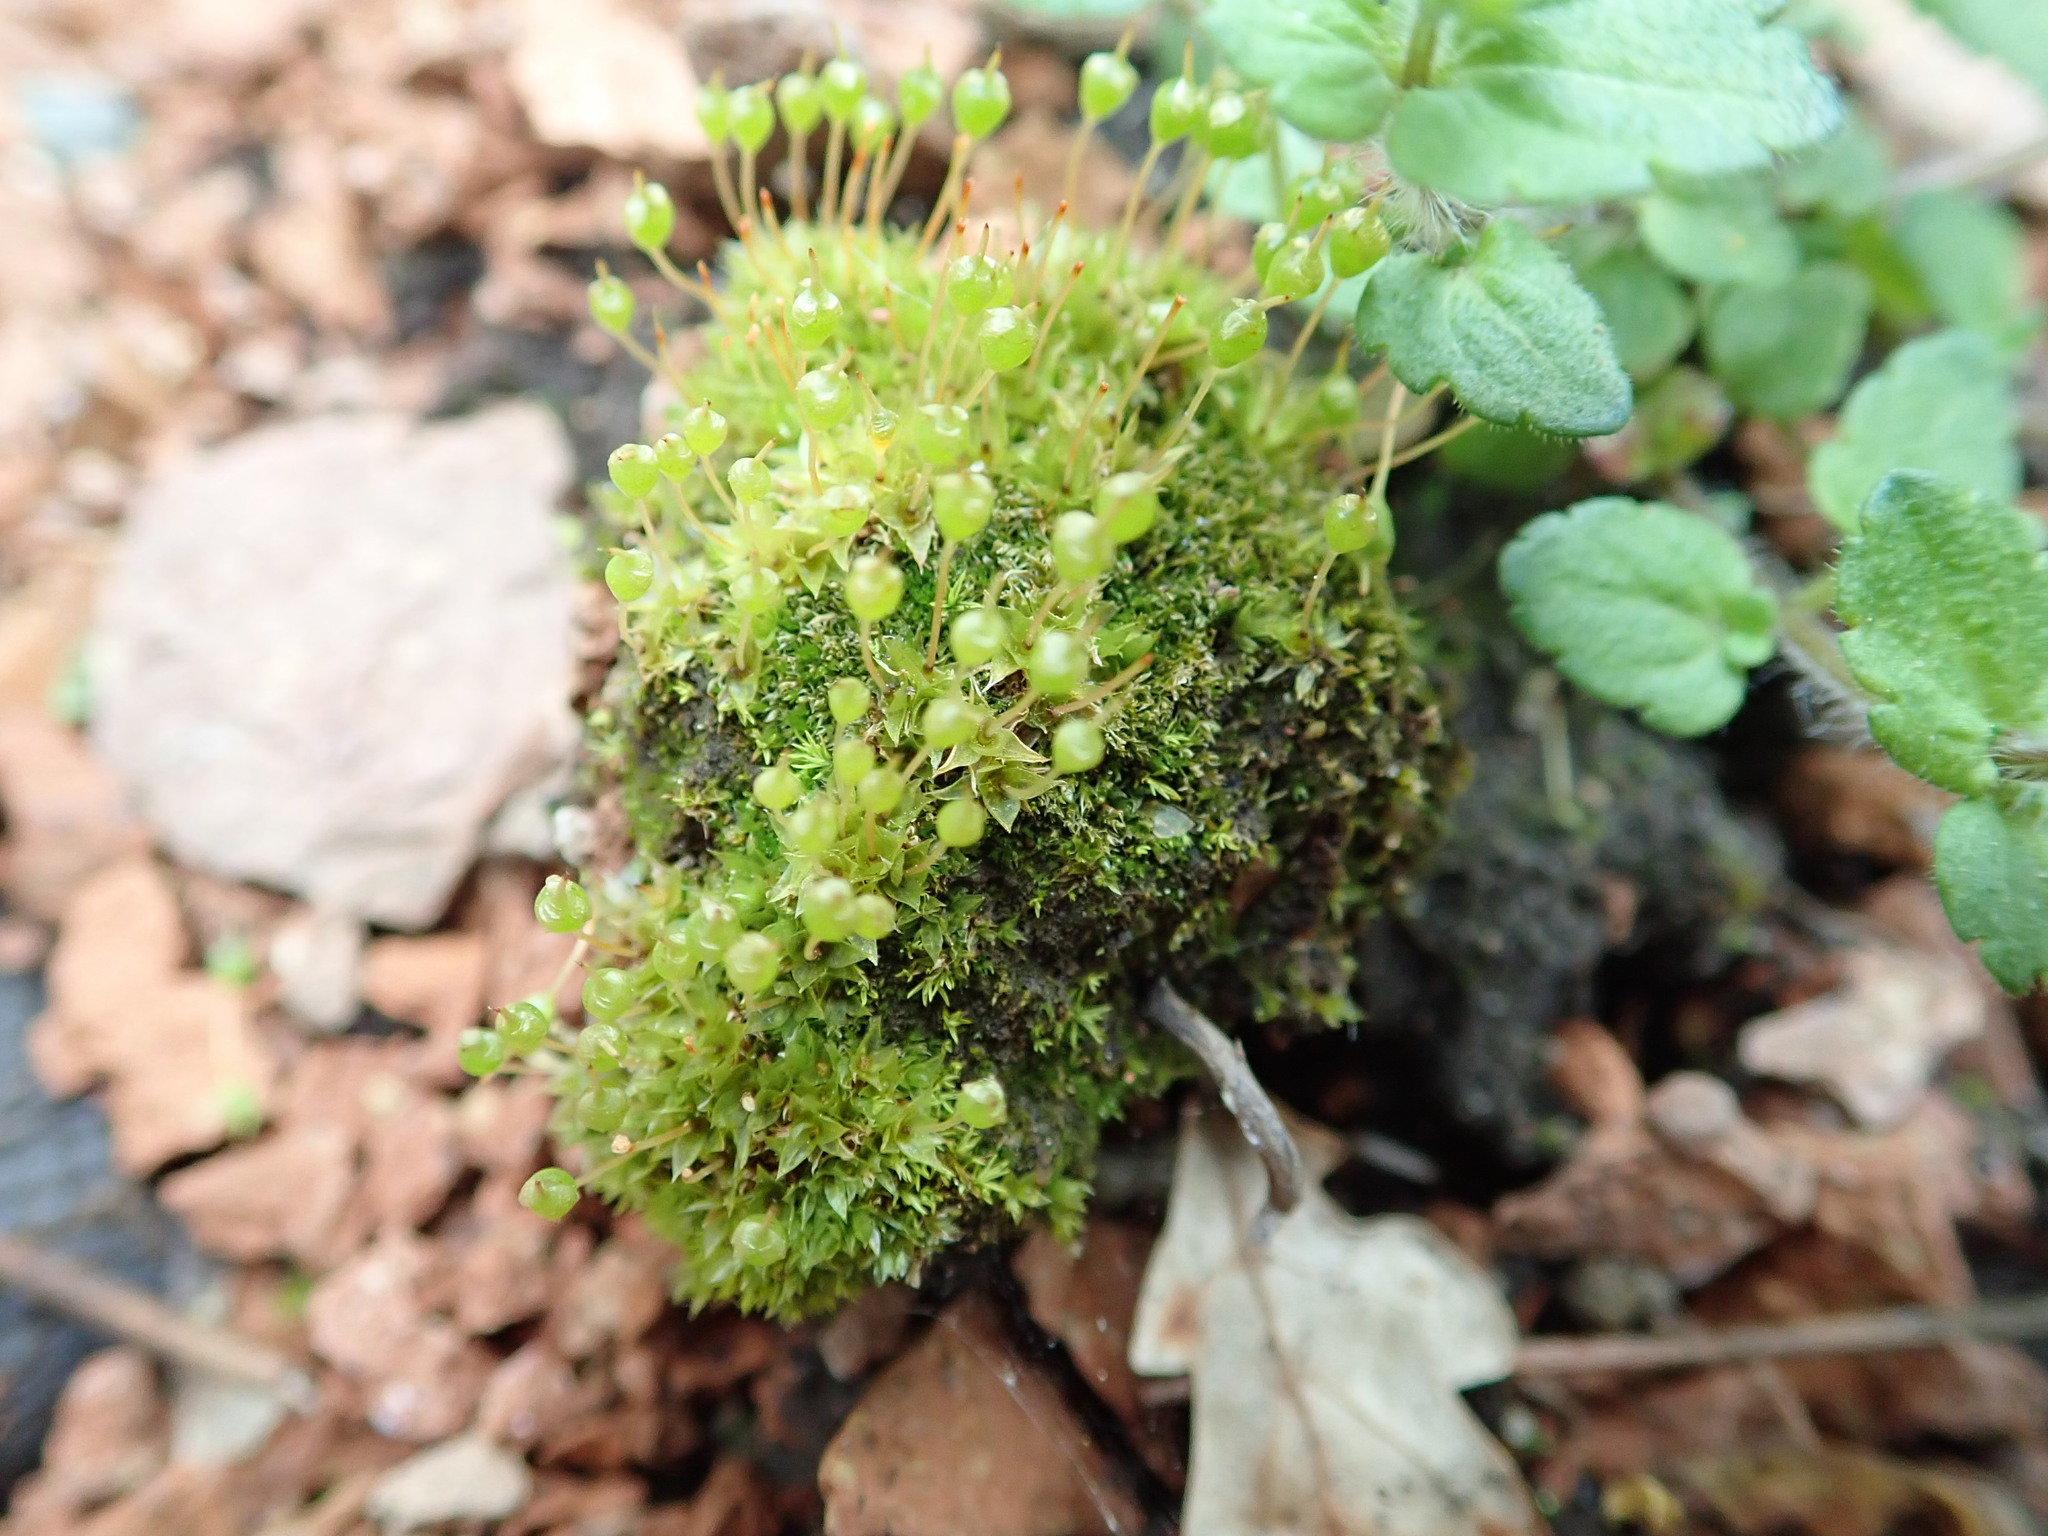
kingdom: Plantae
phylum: Bryophyta
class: Bryopsida
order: Funariales
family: Funariaceae
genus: Physcomitrium
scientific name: Physcomitrium pyriforme
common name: Common bladder-moss
